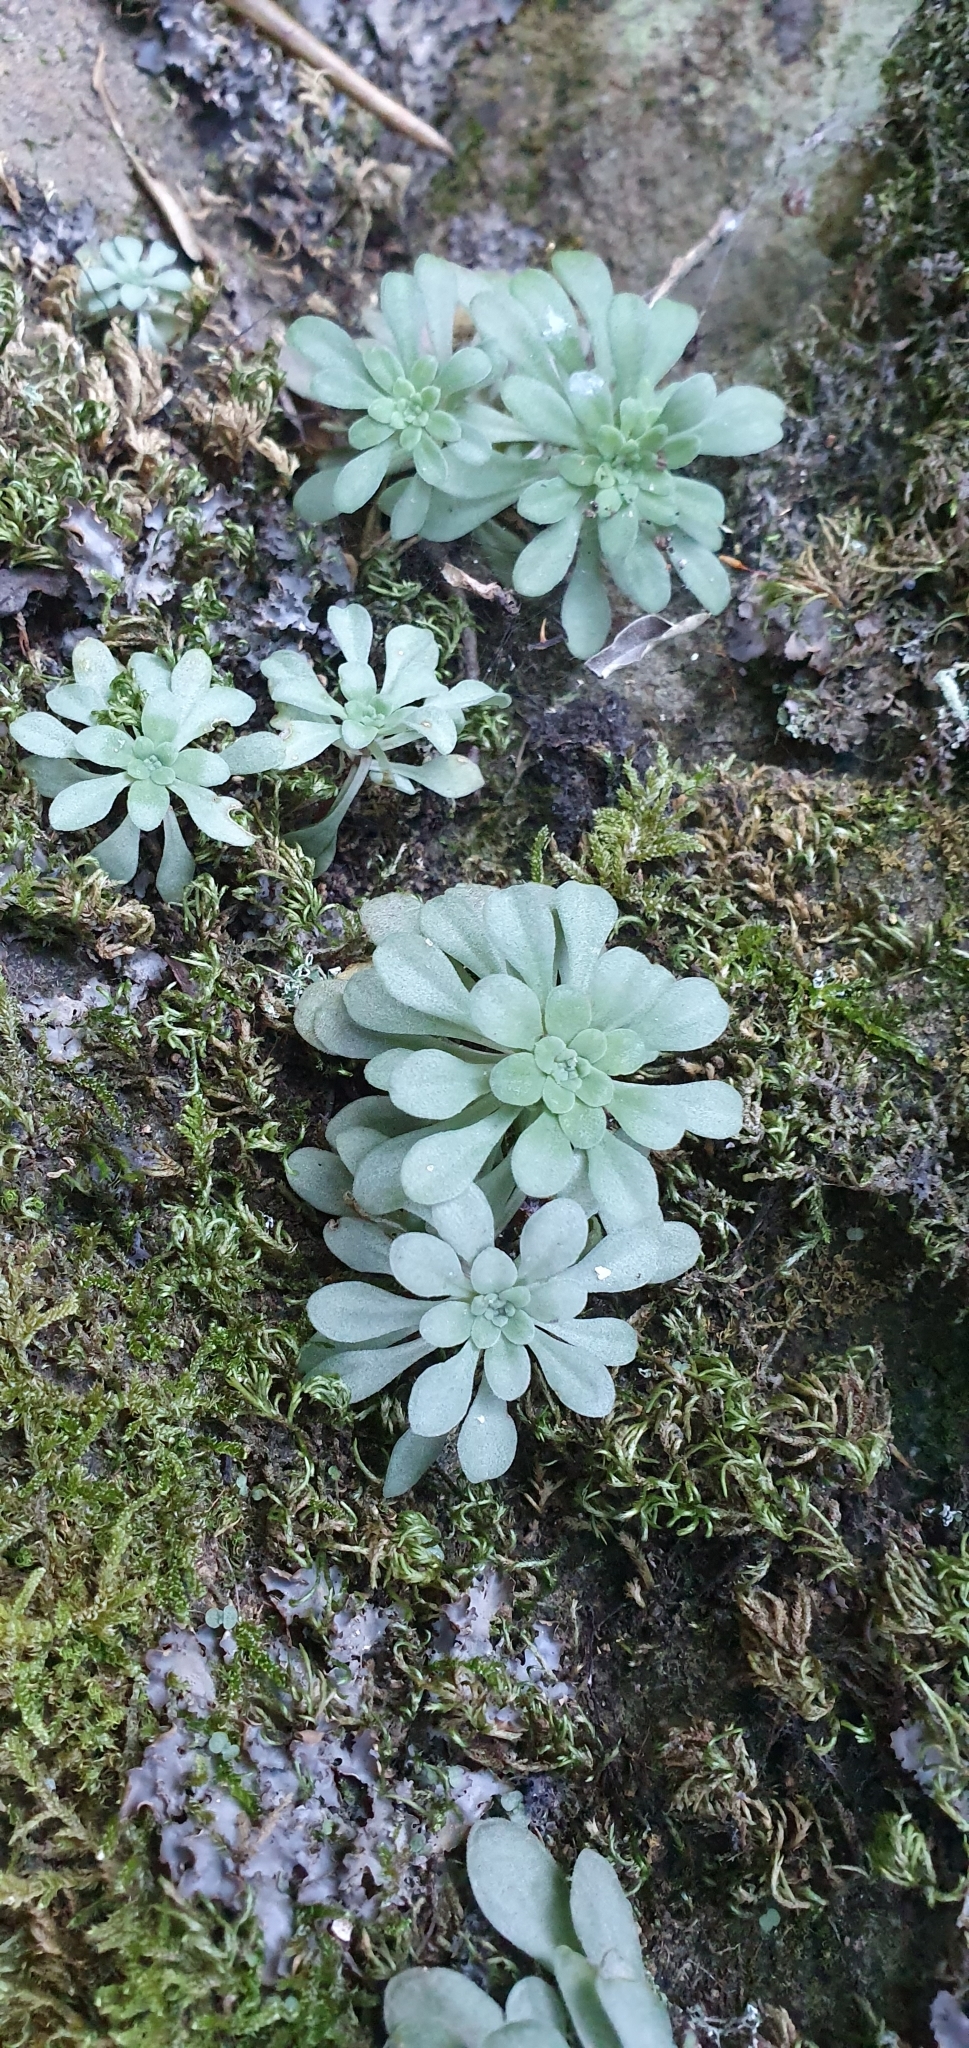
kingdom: Plantae
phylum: Tracheophyta
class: Magnoliopsida
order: Saxifragales
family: Crassulaceae
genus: Sedum
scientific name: Sedum cepaea
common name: Pink stonecrop
